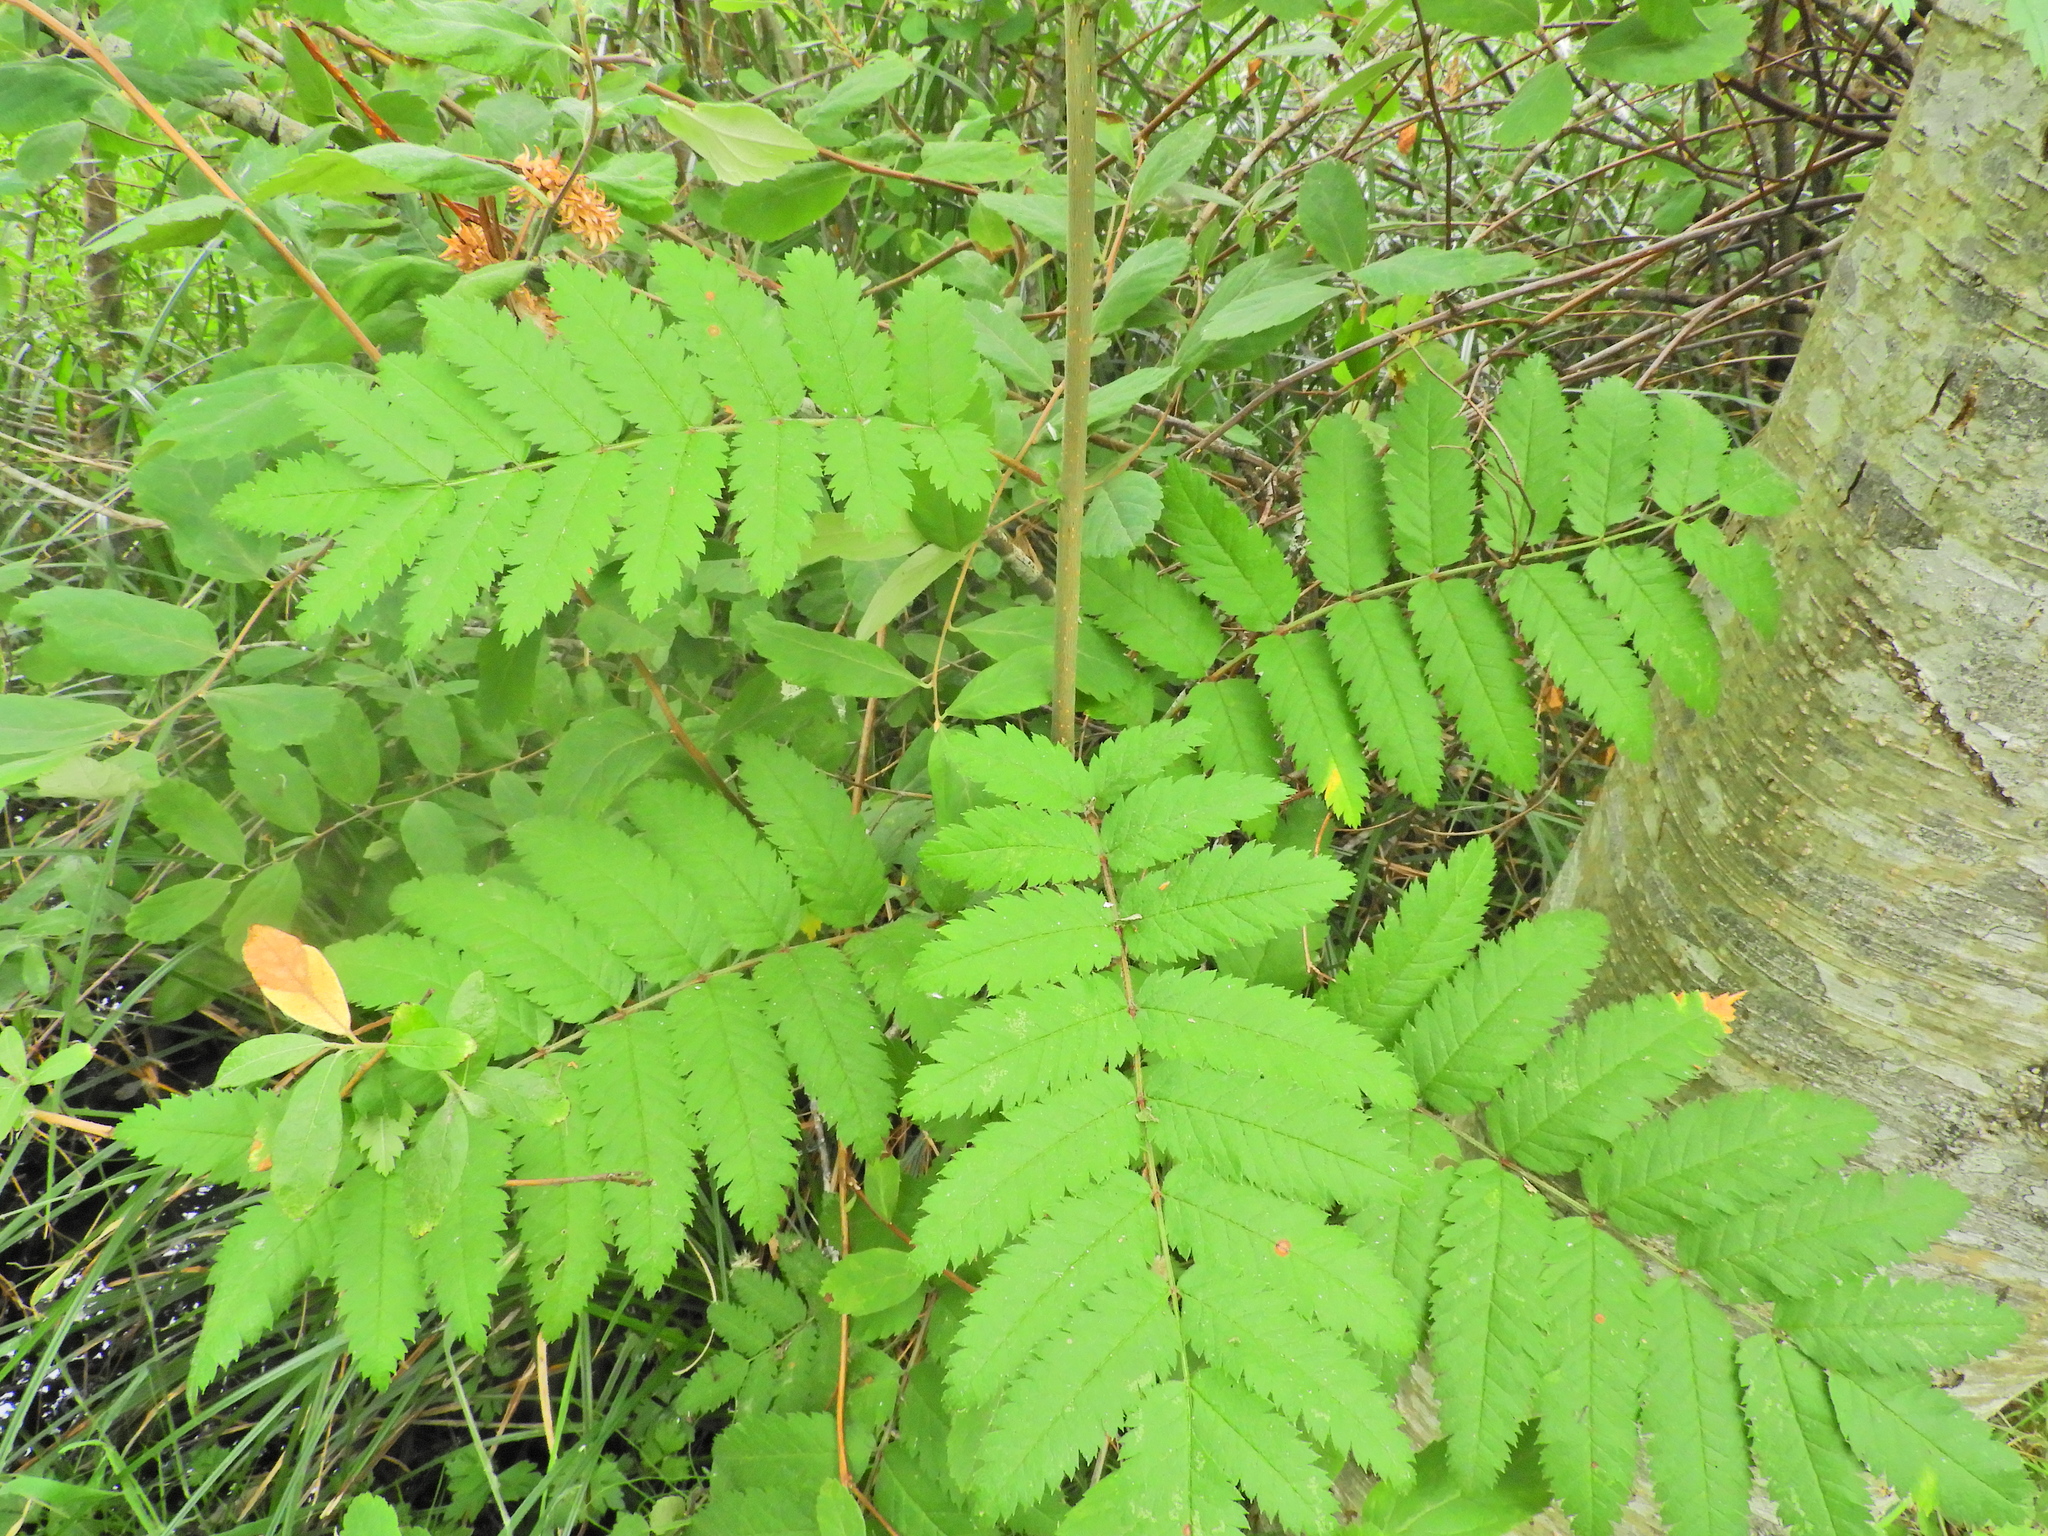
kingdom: Plantae
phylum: Tracheophyta
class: Magnoliopsida
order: Rosales
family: Rosaceae
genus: Sorbus
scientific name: Sorbus aucuparia
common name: Rowan
